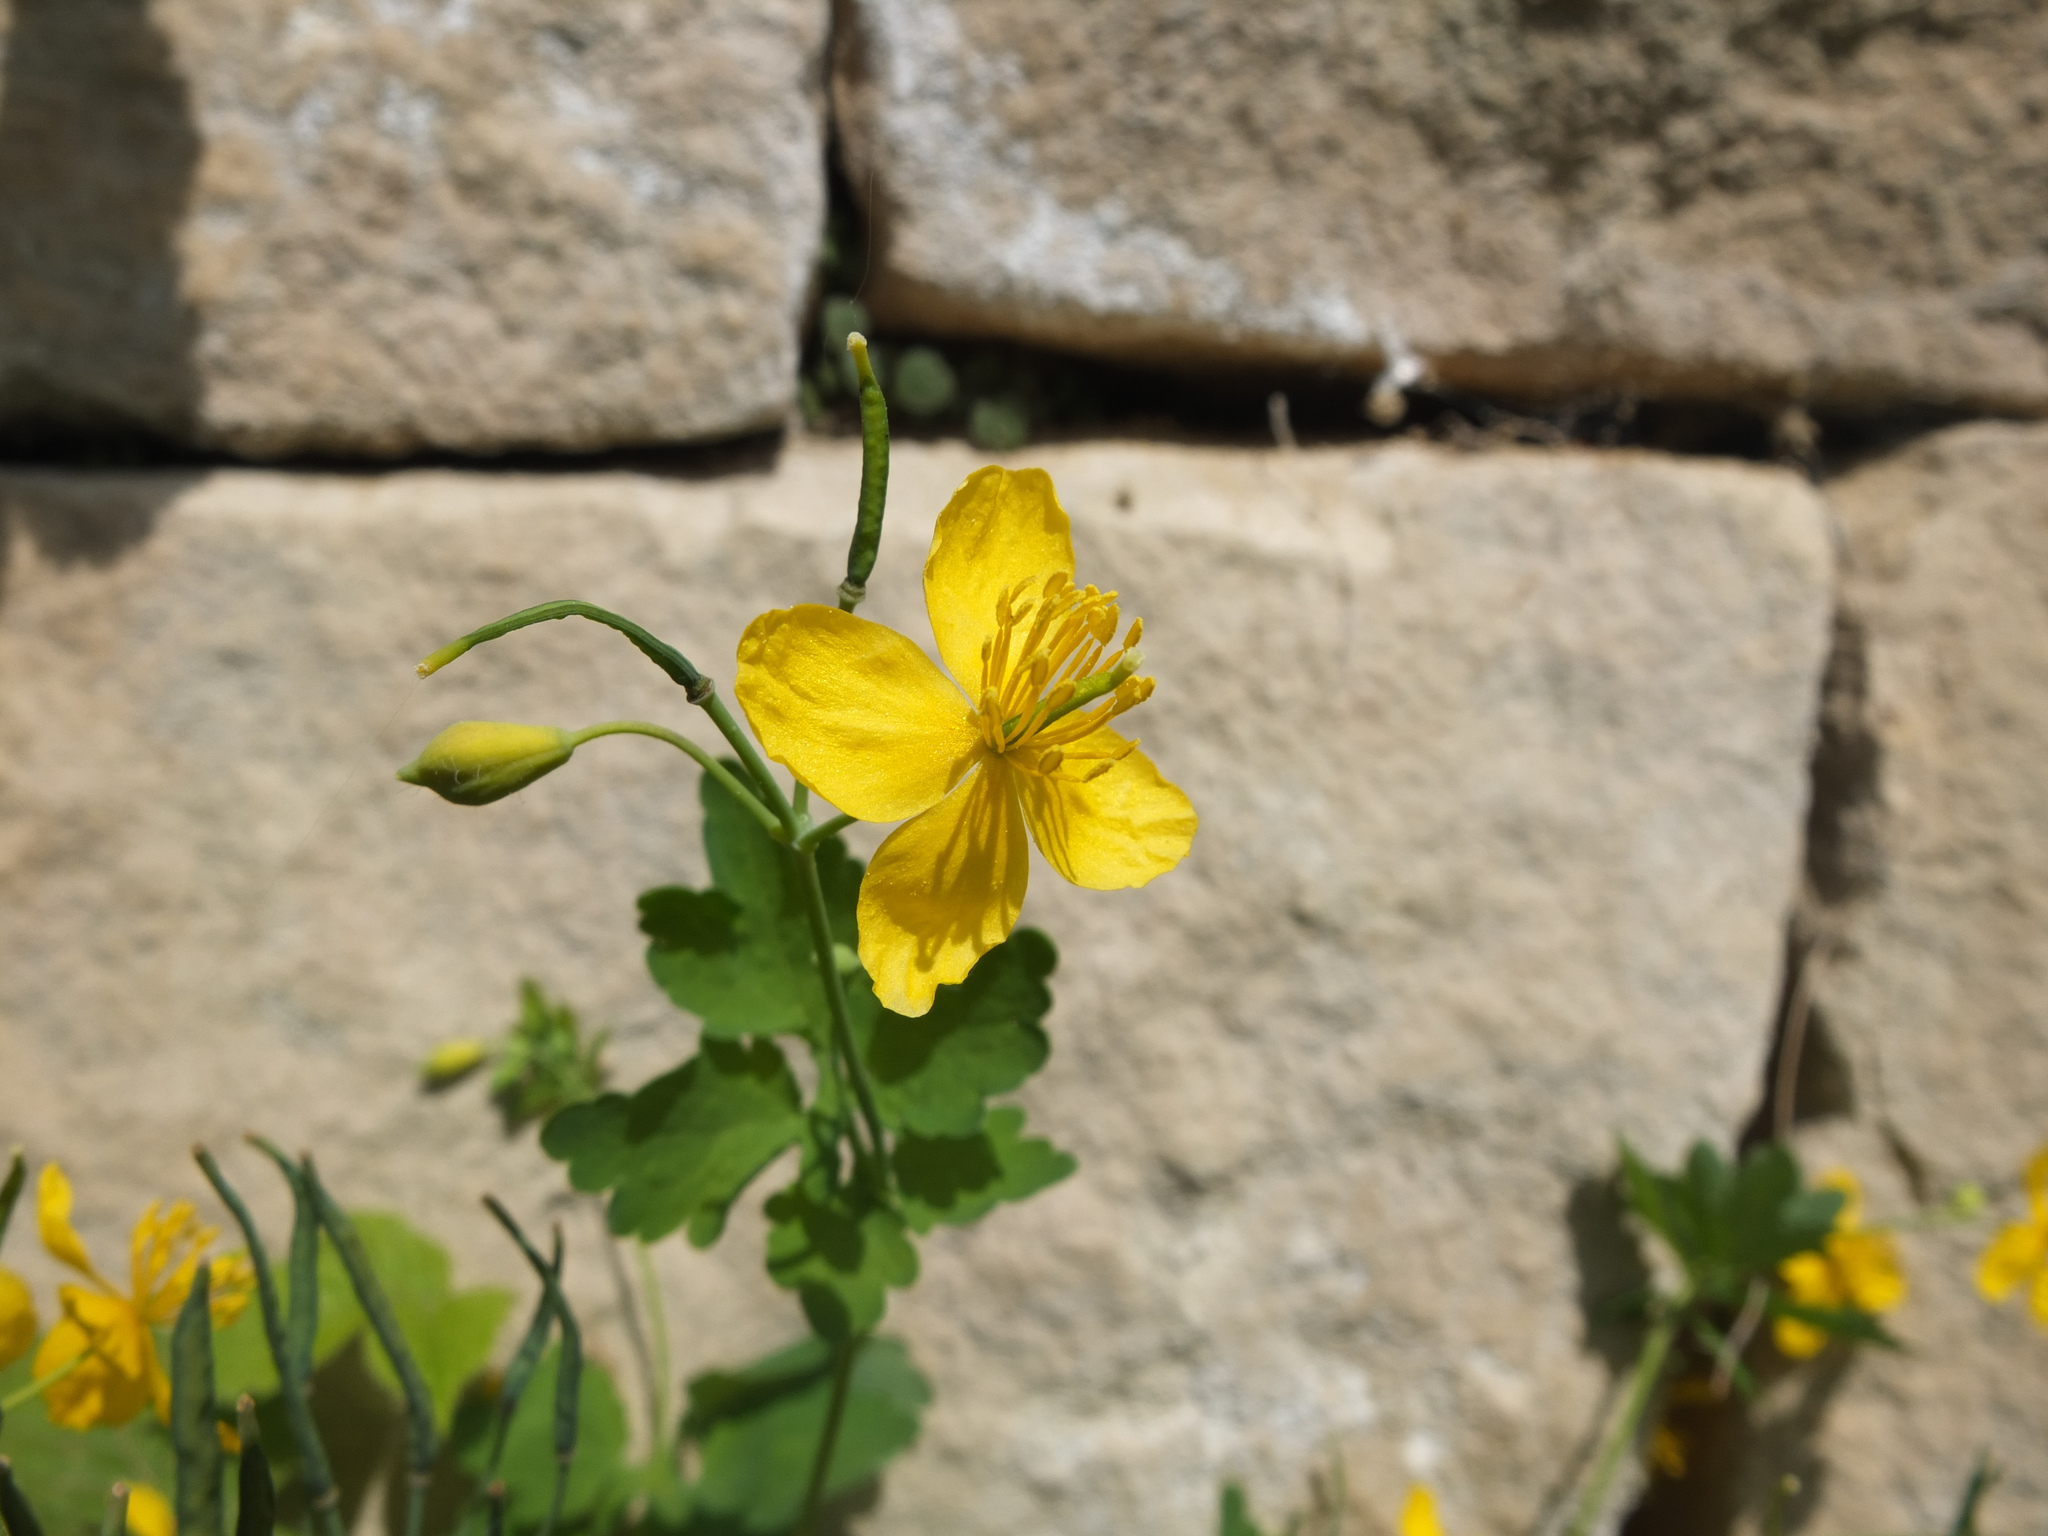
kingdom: Plantae
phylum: Tracheophyta
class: Magnoliopsida
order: Ranunculales
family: Papaveraceae
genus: Chelidonium
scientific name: Chelidonium majus
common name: Greater celandine
